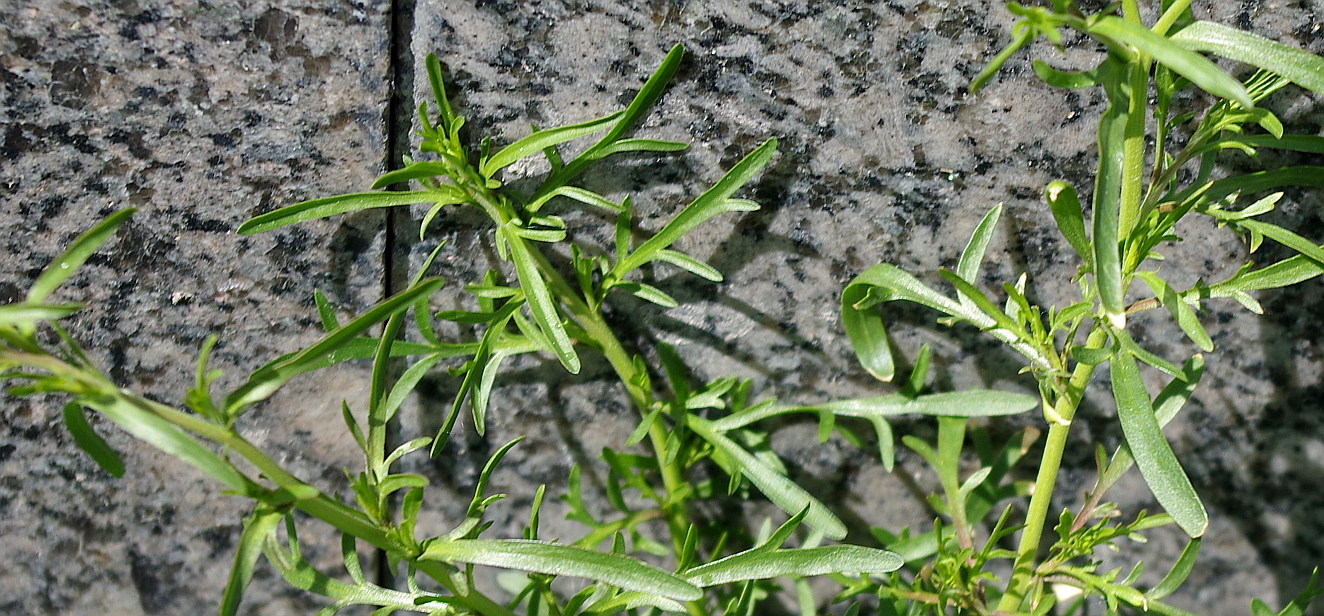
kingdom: Plantae
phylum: Tracheophyta
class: Magnoliopsida
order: Brassicales
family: Brassicaceae
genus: Lepidium
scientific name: Lepidium ruderale
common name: Narrow-leaved pepperwort
